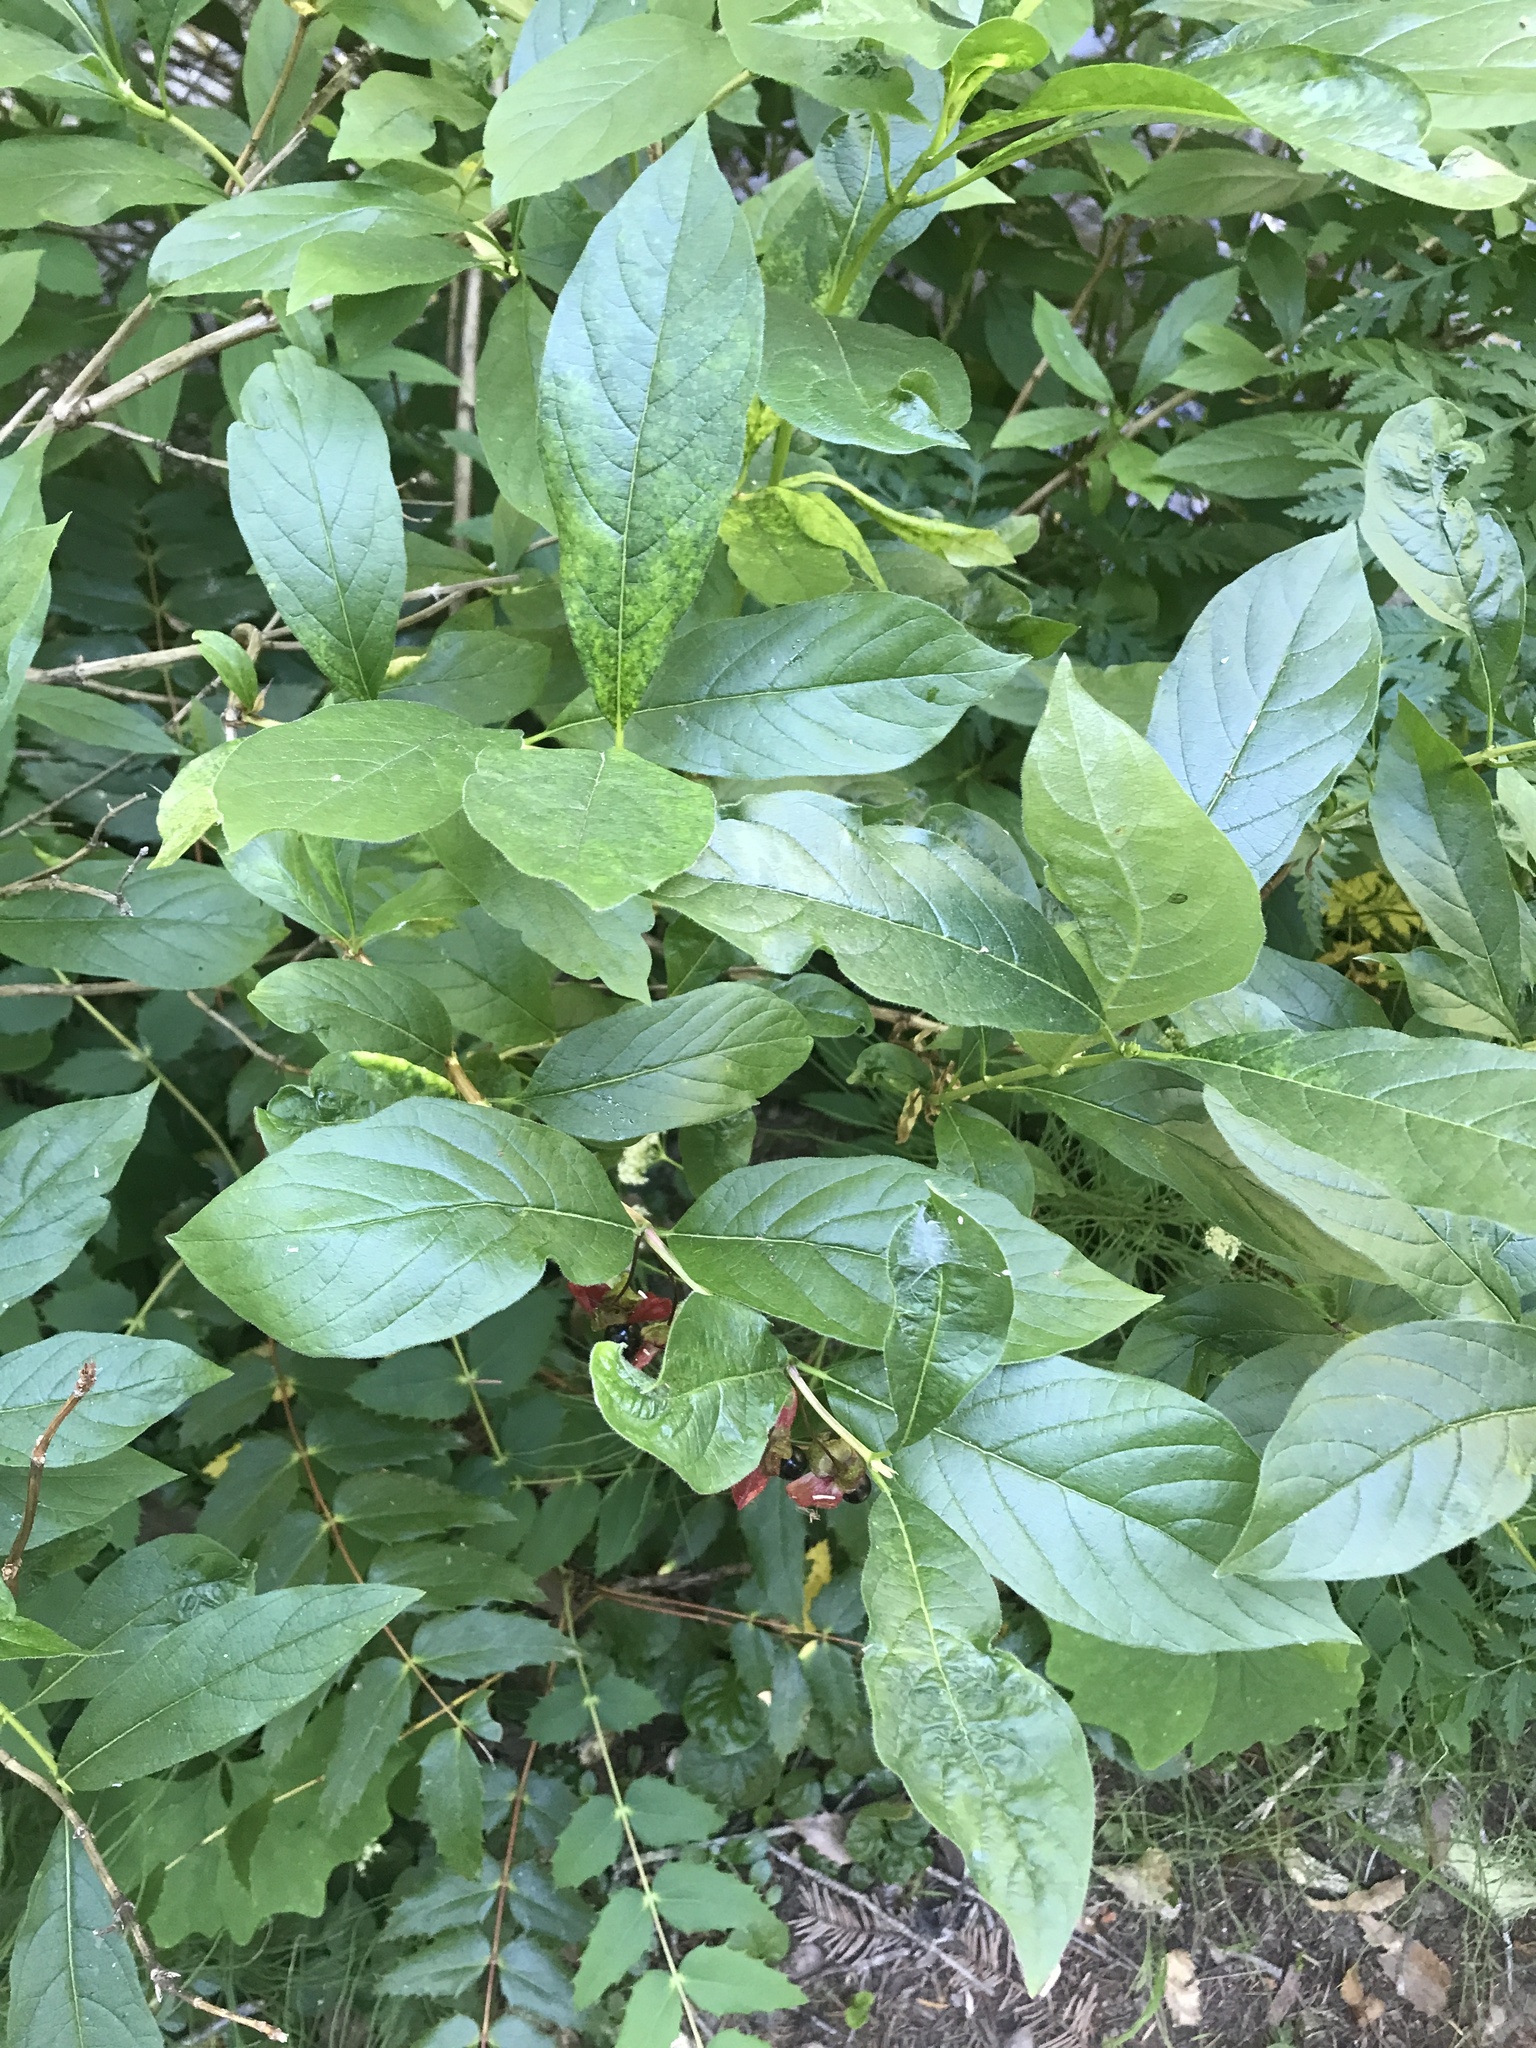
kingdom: Plantae
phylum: Tracheophyta
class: Magnoliopsida
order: Dipsacales
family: Caprifoliaceae
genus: Lonicera
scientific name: Lonicera involucrata
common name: Californian honeysuckle
